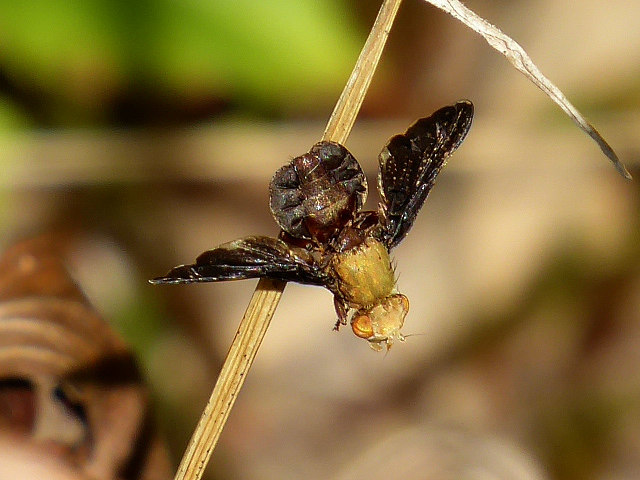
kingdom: Animalia
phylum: Arthropoda
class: Insecta
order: Diptera
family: Tephritidae
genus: Eurosta
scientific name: Eurosta comma
